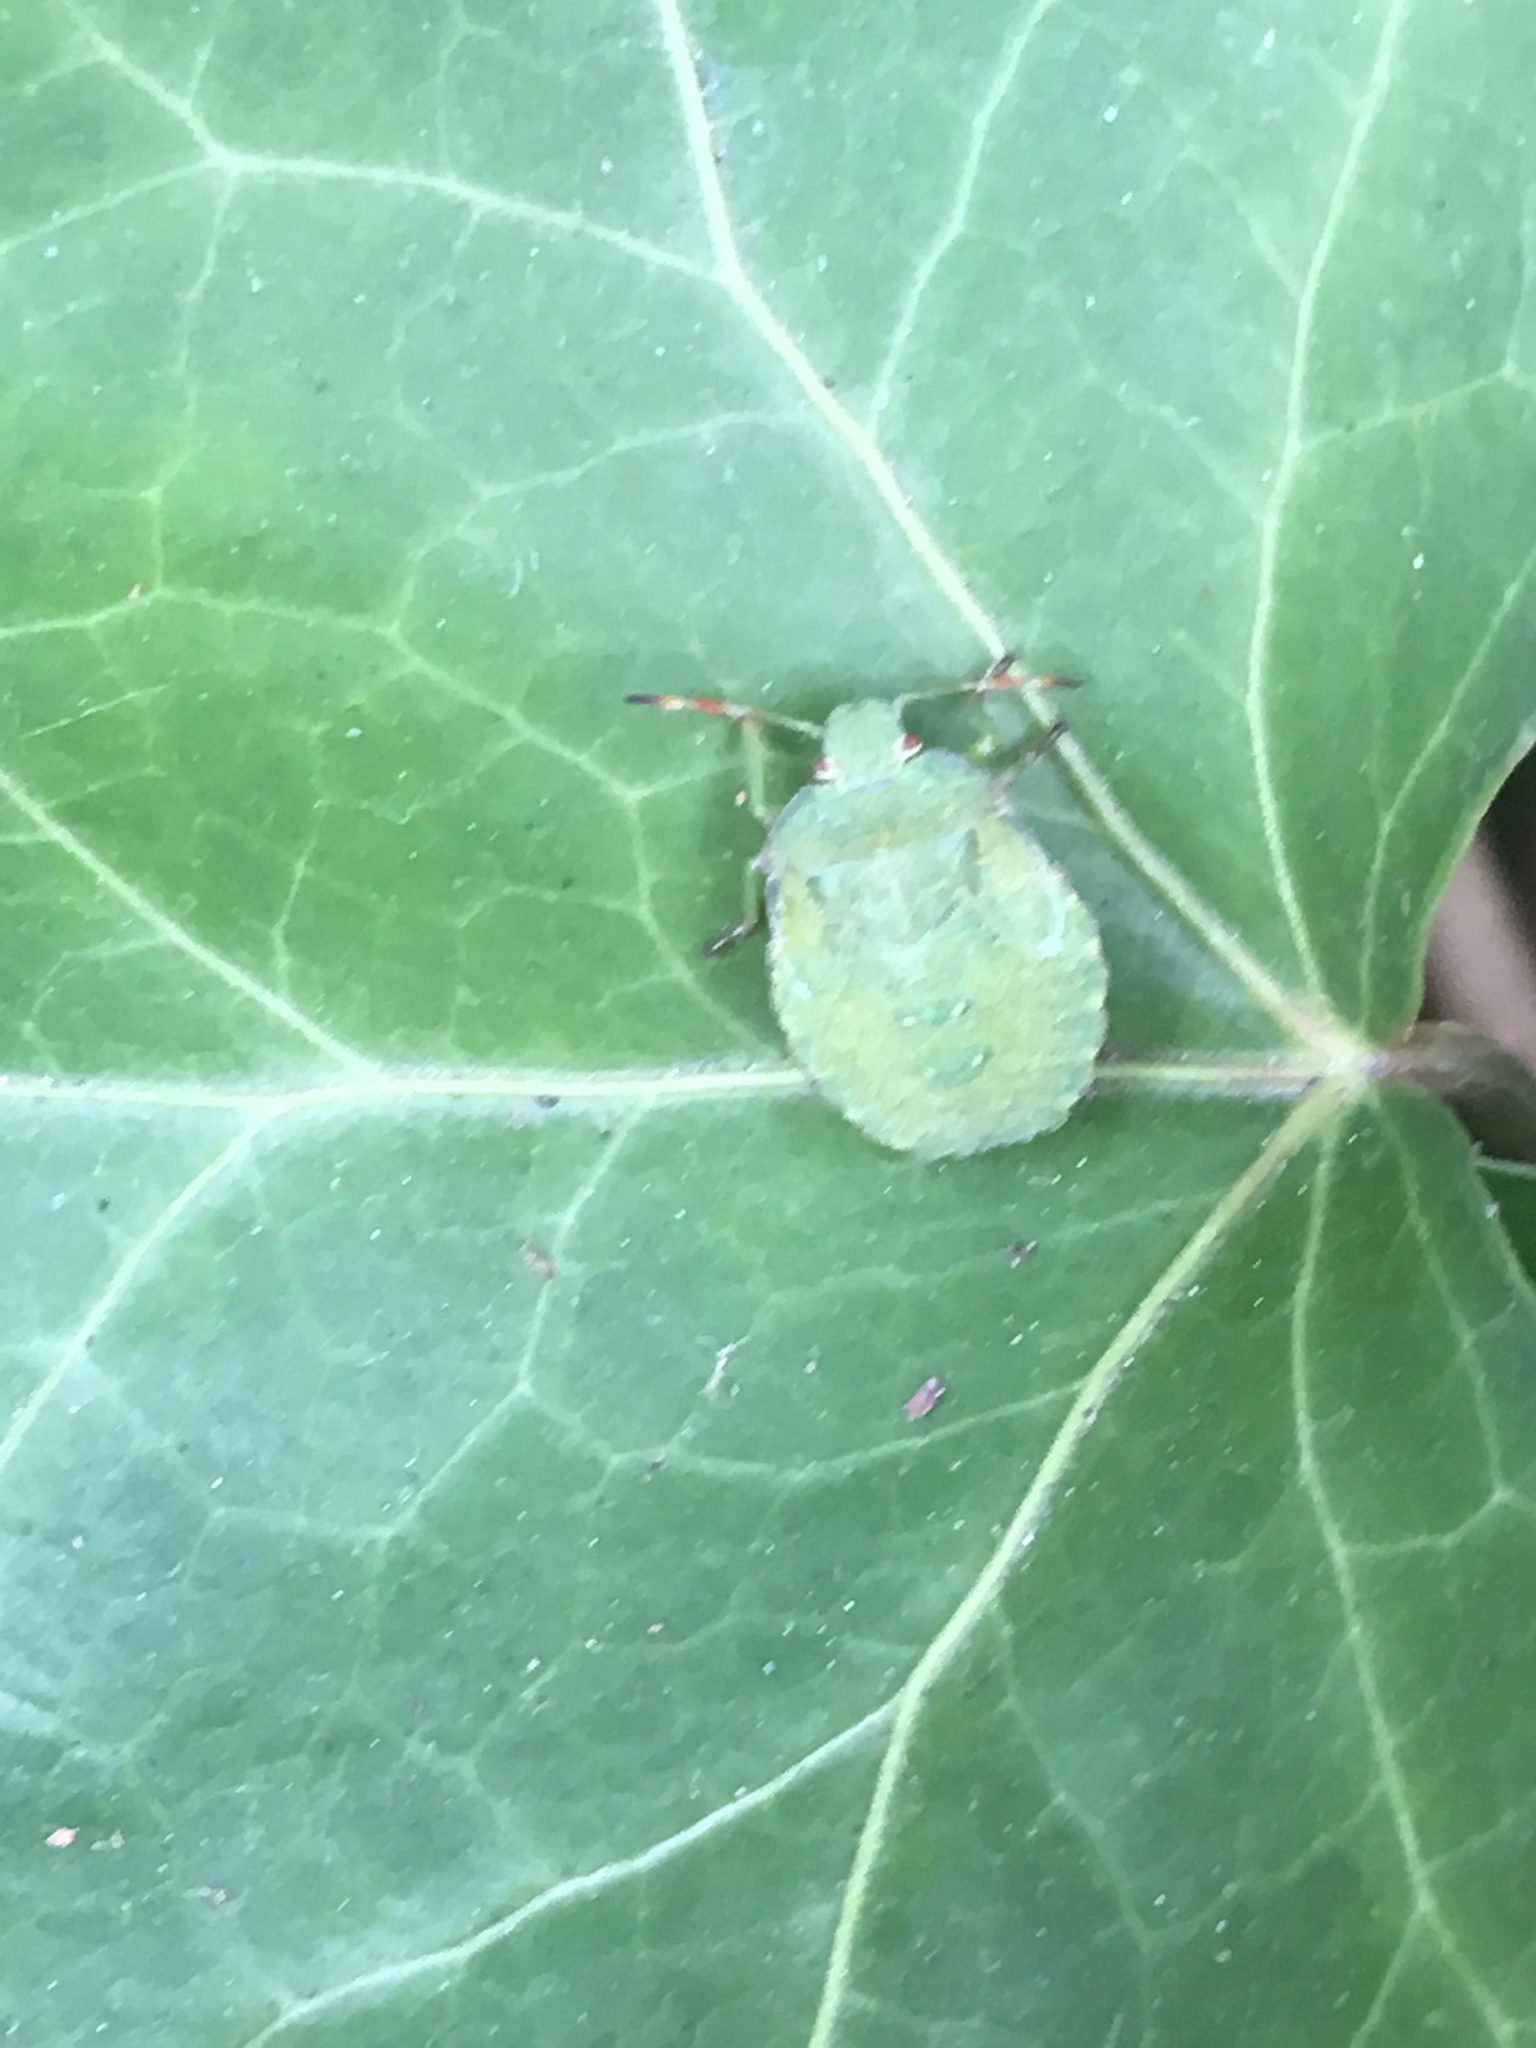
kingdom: Animalia
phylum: Arthropoda
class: Insecta
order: Hemiptera
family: Pentatomidae
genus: Palomena
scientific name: Palomena prasina
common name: Green shieldbug
